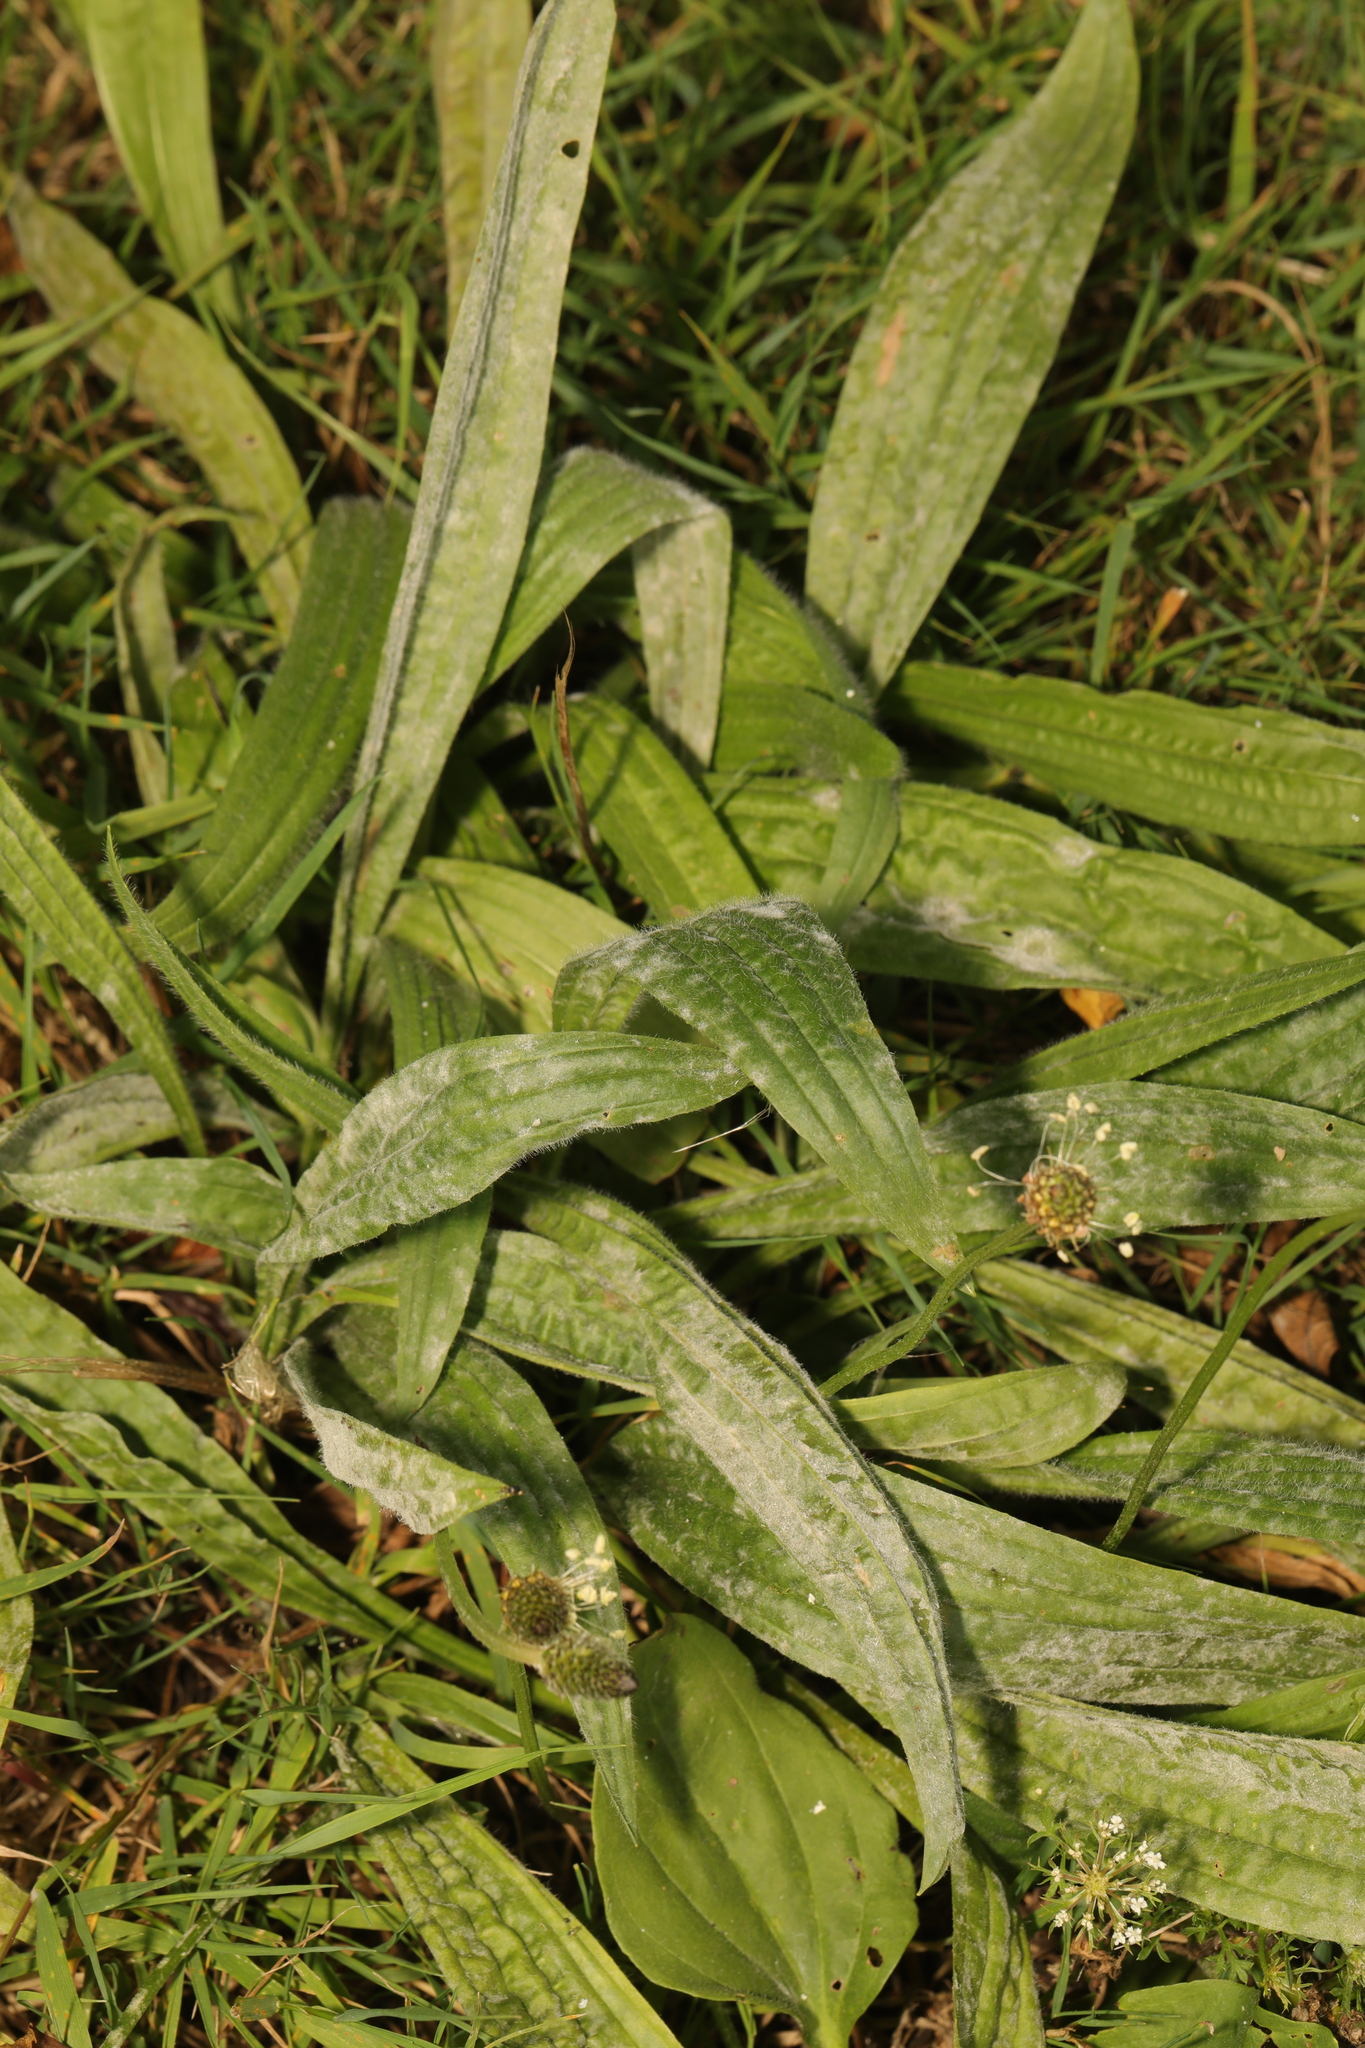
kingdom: Plantae
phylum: Tracheophyta
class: Magnoliopsida
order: Lamiales
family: Plantaginaceae
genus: Plantago
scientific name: Plantago lanceolata
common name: Ribwort plantain
